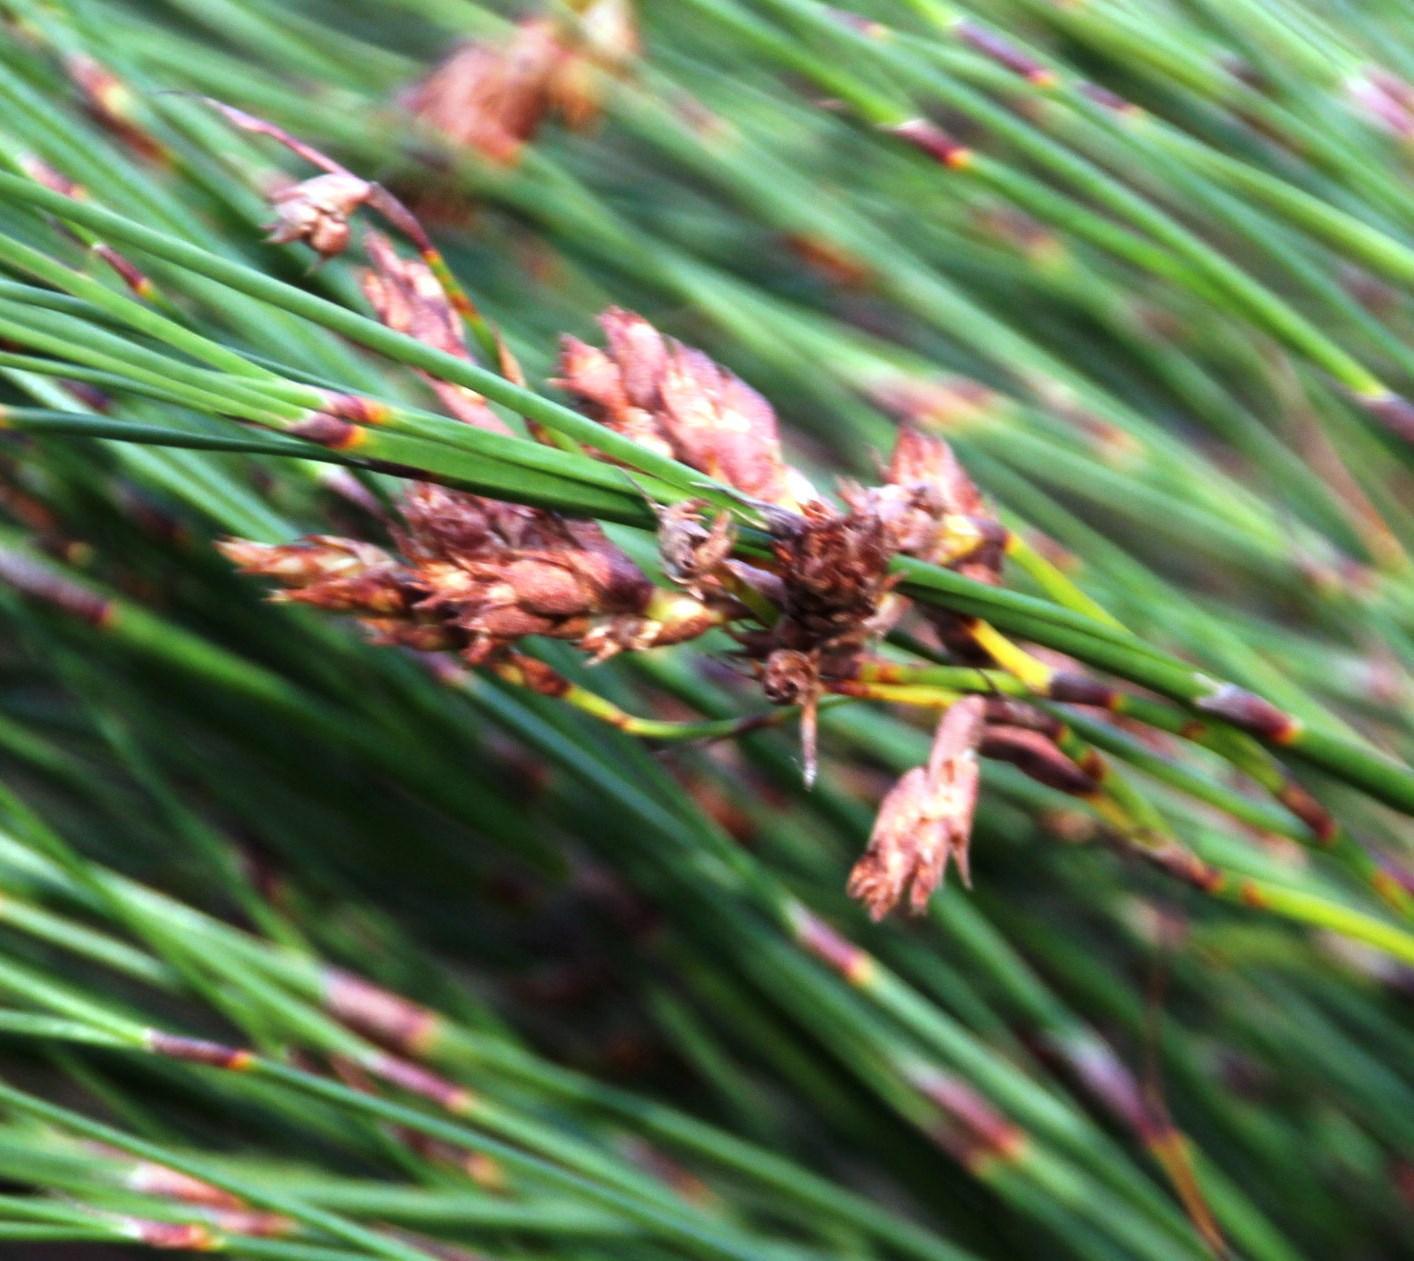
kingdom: Plantae
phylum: Tracheophyta
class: Liliopsida
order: Poales
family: Restionaceae
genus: Cannomois
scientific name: Cannomois virgata
